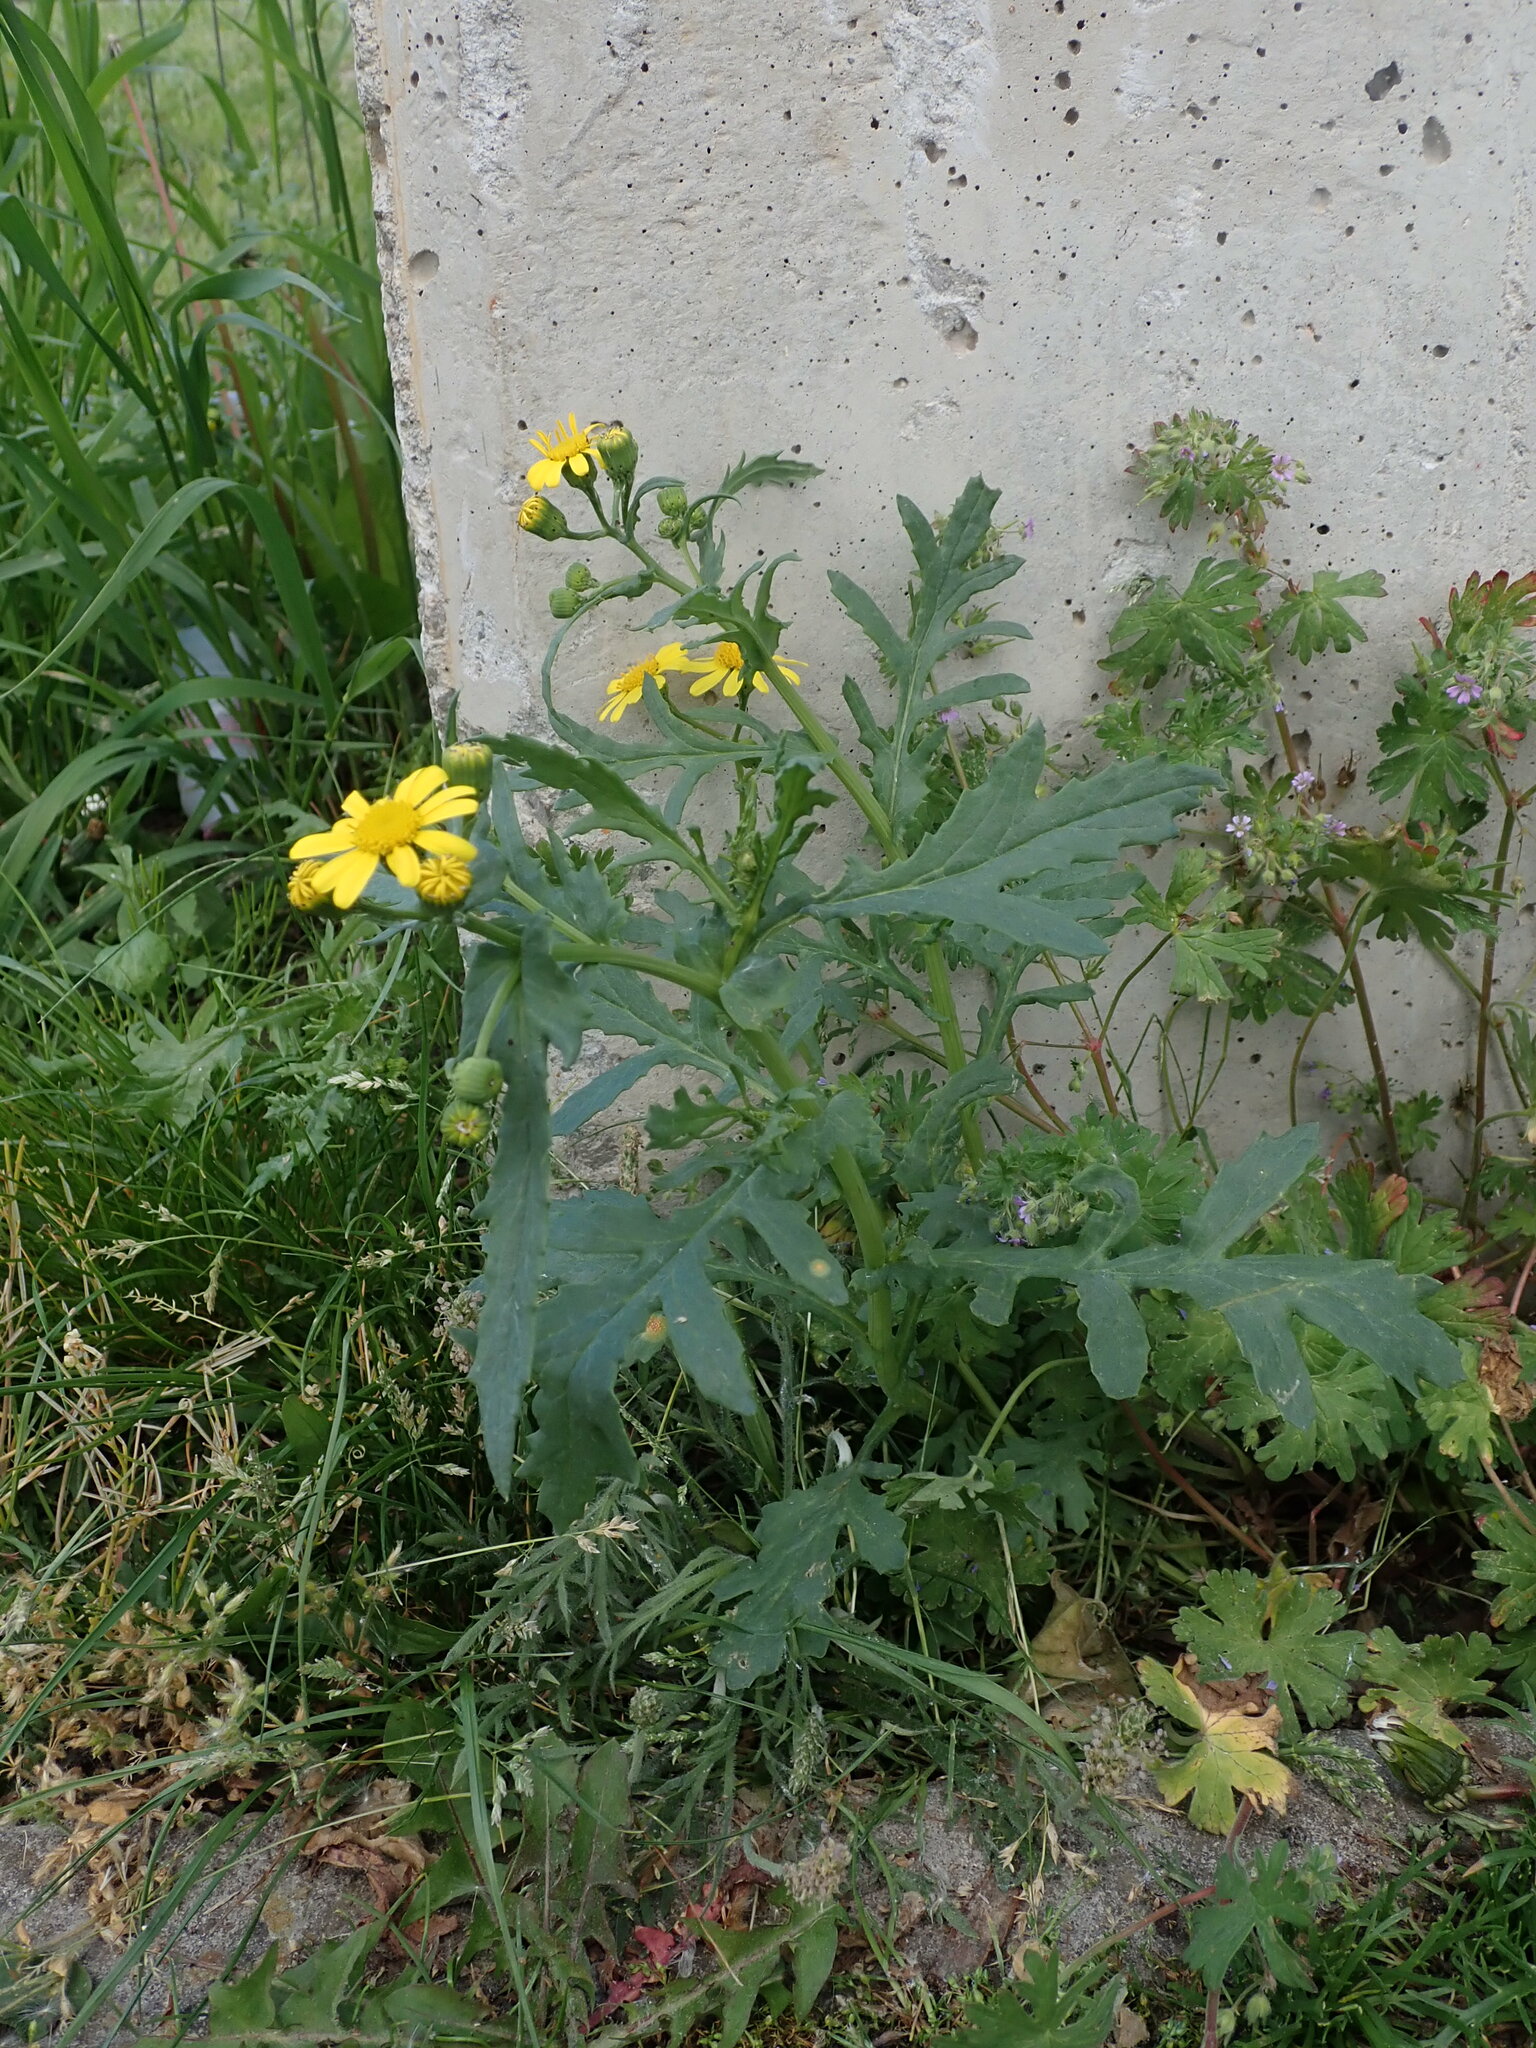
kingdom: Plantae
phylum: Tracheophyta
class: Magnoliopsida
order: Asterales
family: Asteraceae
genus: Senecio
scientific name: Senecio squalidus
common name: Oxford ragwort
